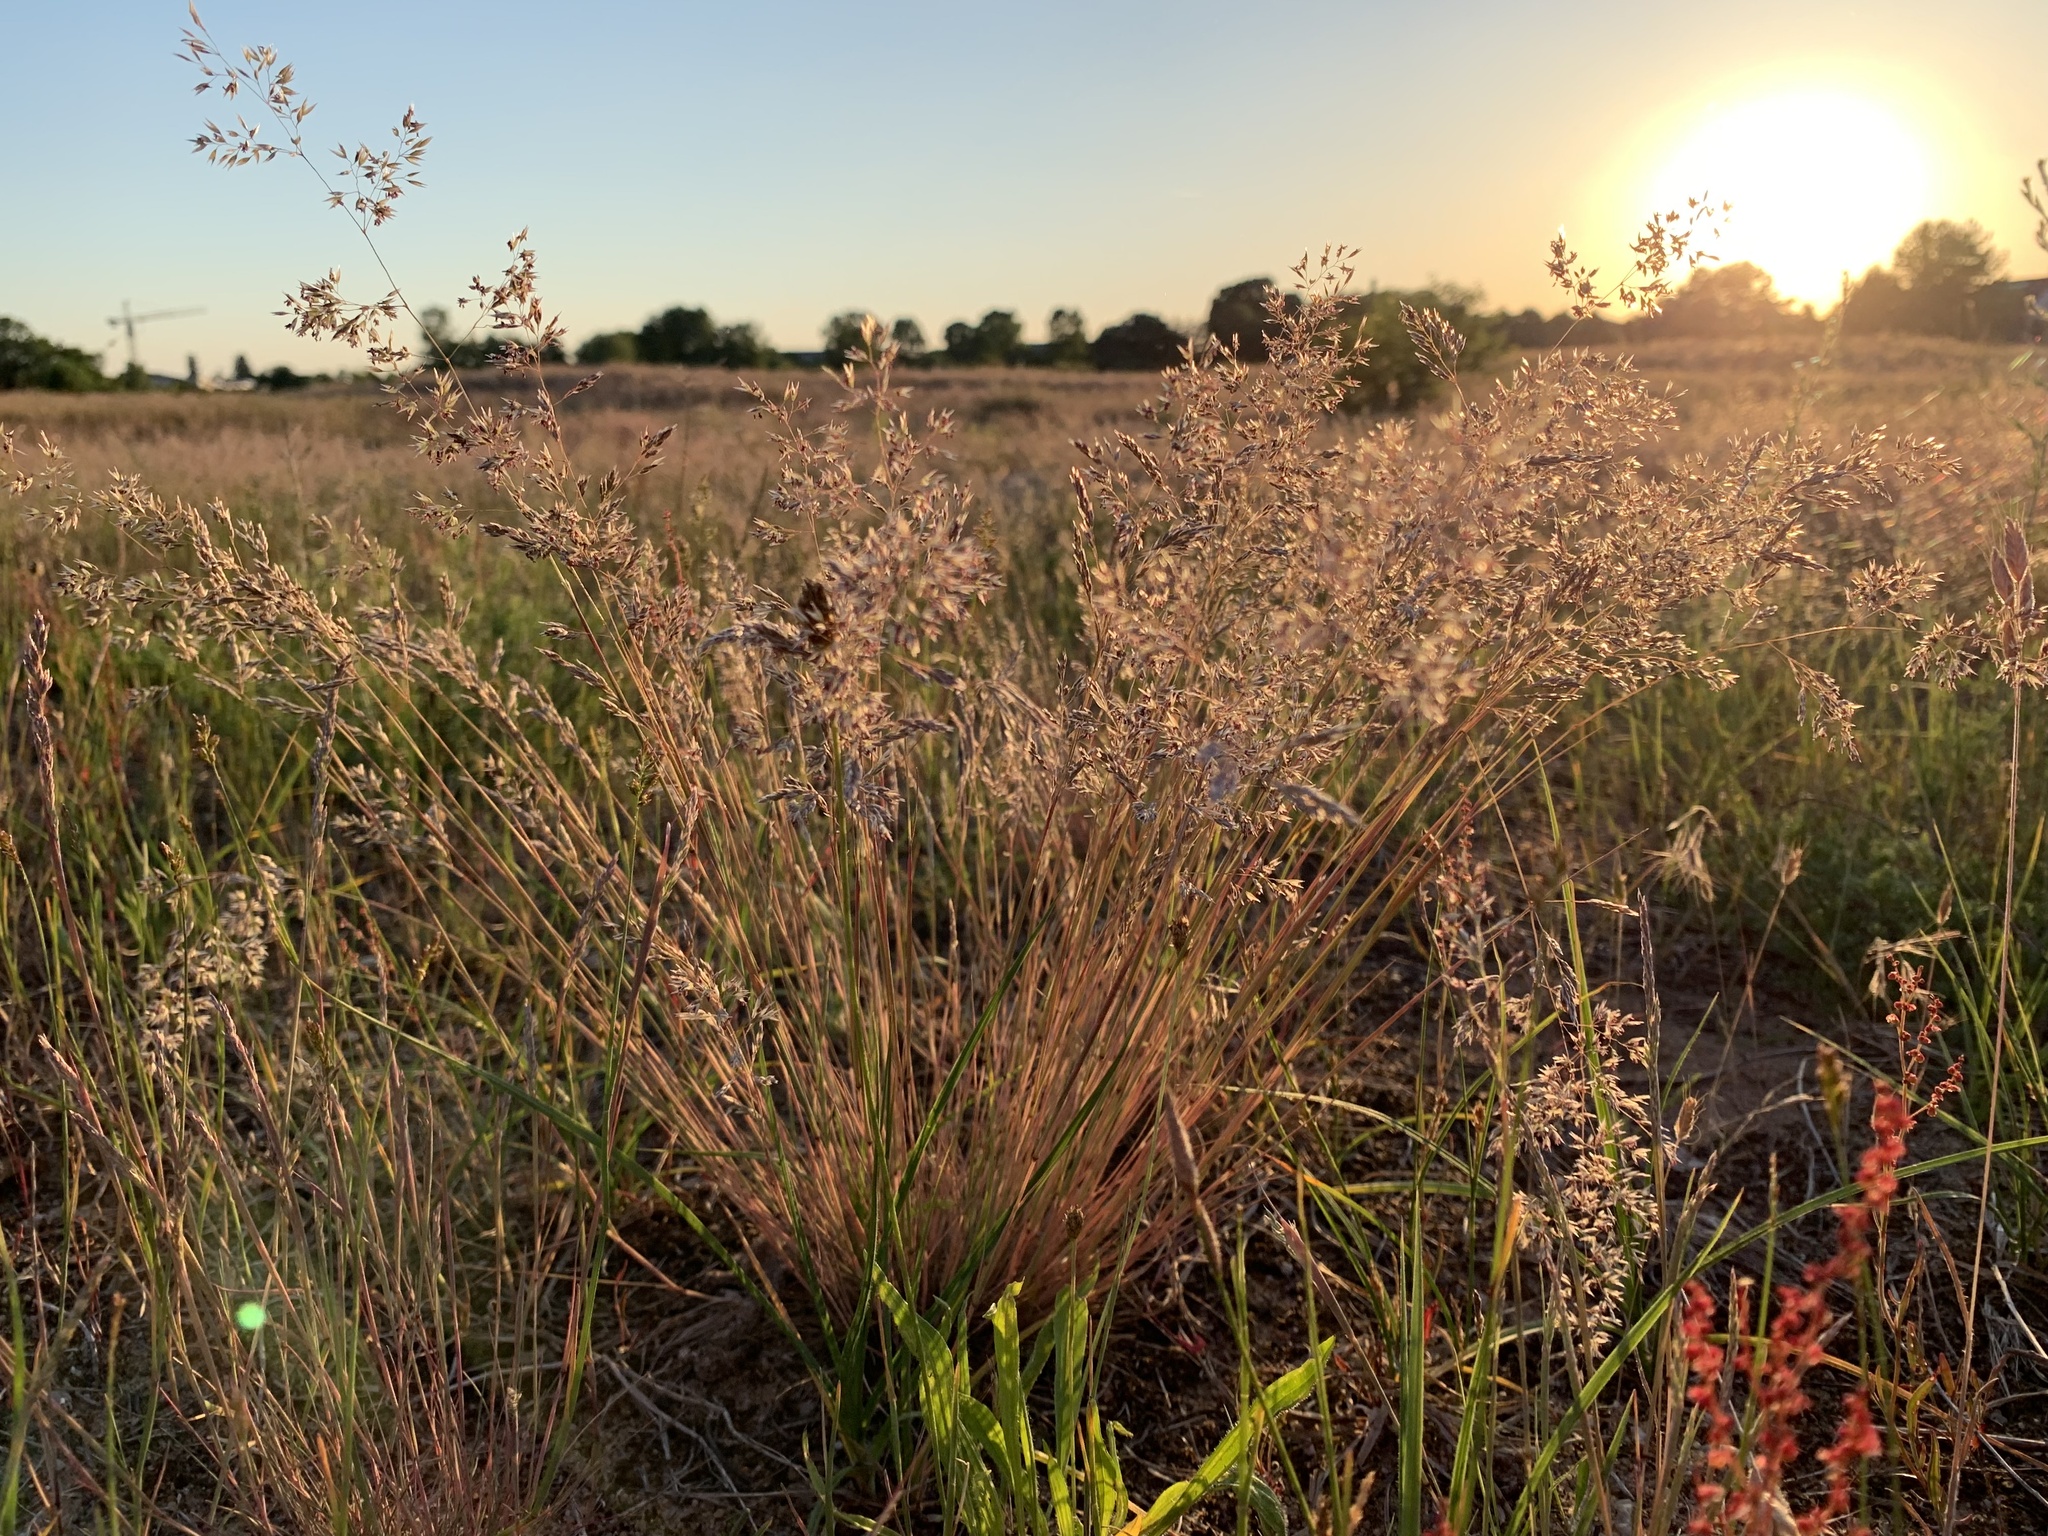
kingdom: Plantae
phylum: Tracheophyta
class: Liliopsida
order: Poales
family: Poaceae
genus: Corynephorus
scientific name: Corynephorus canescens
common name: Grey hair-grass
